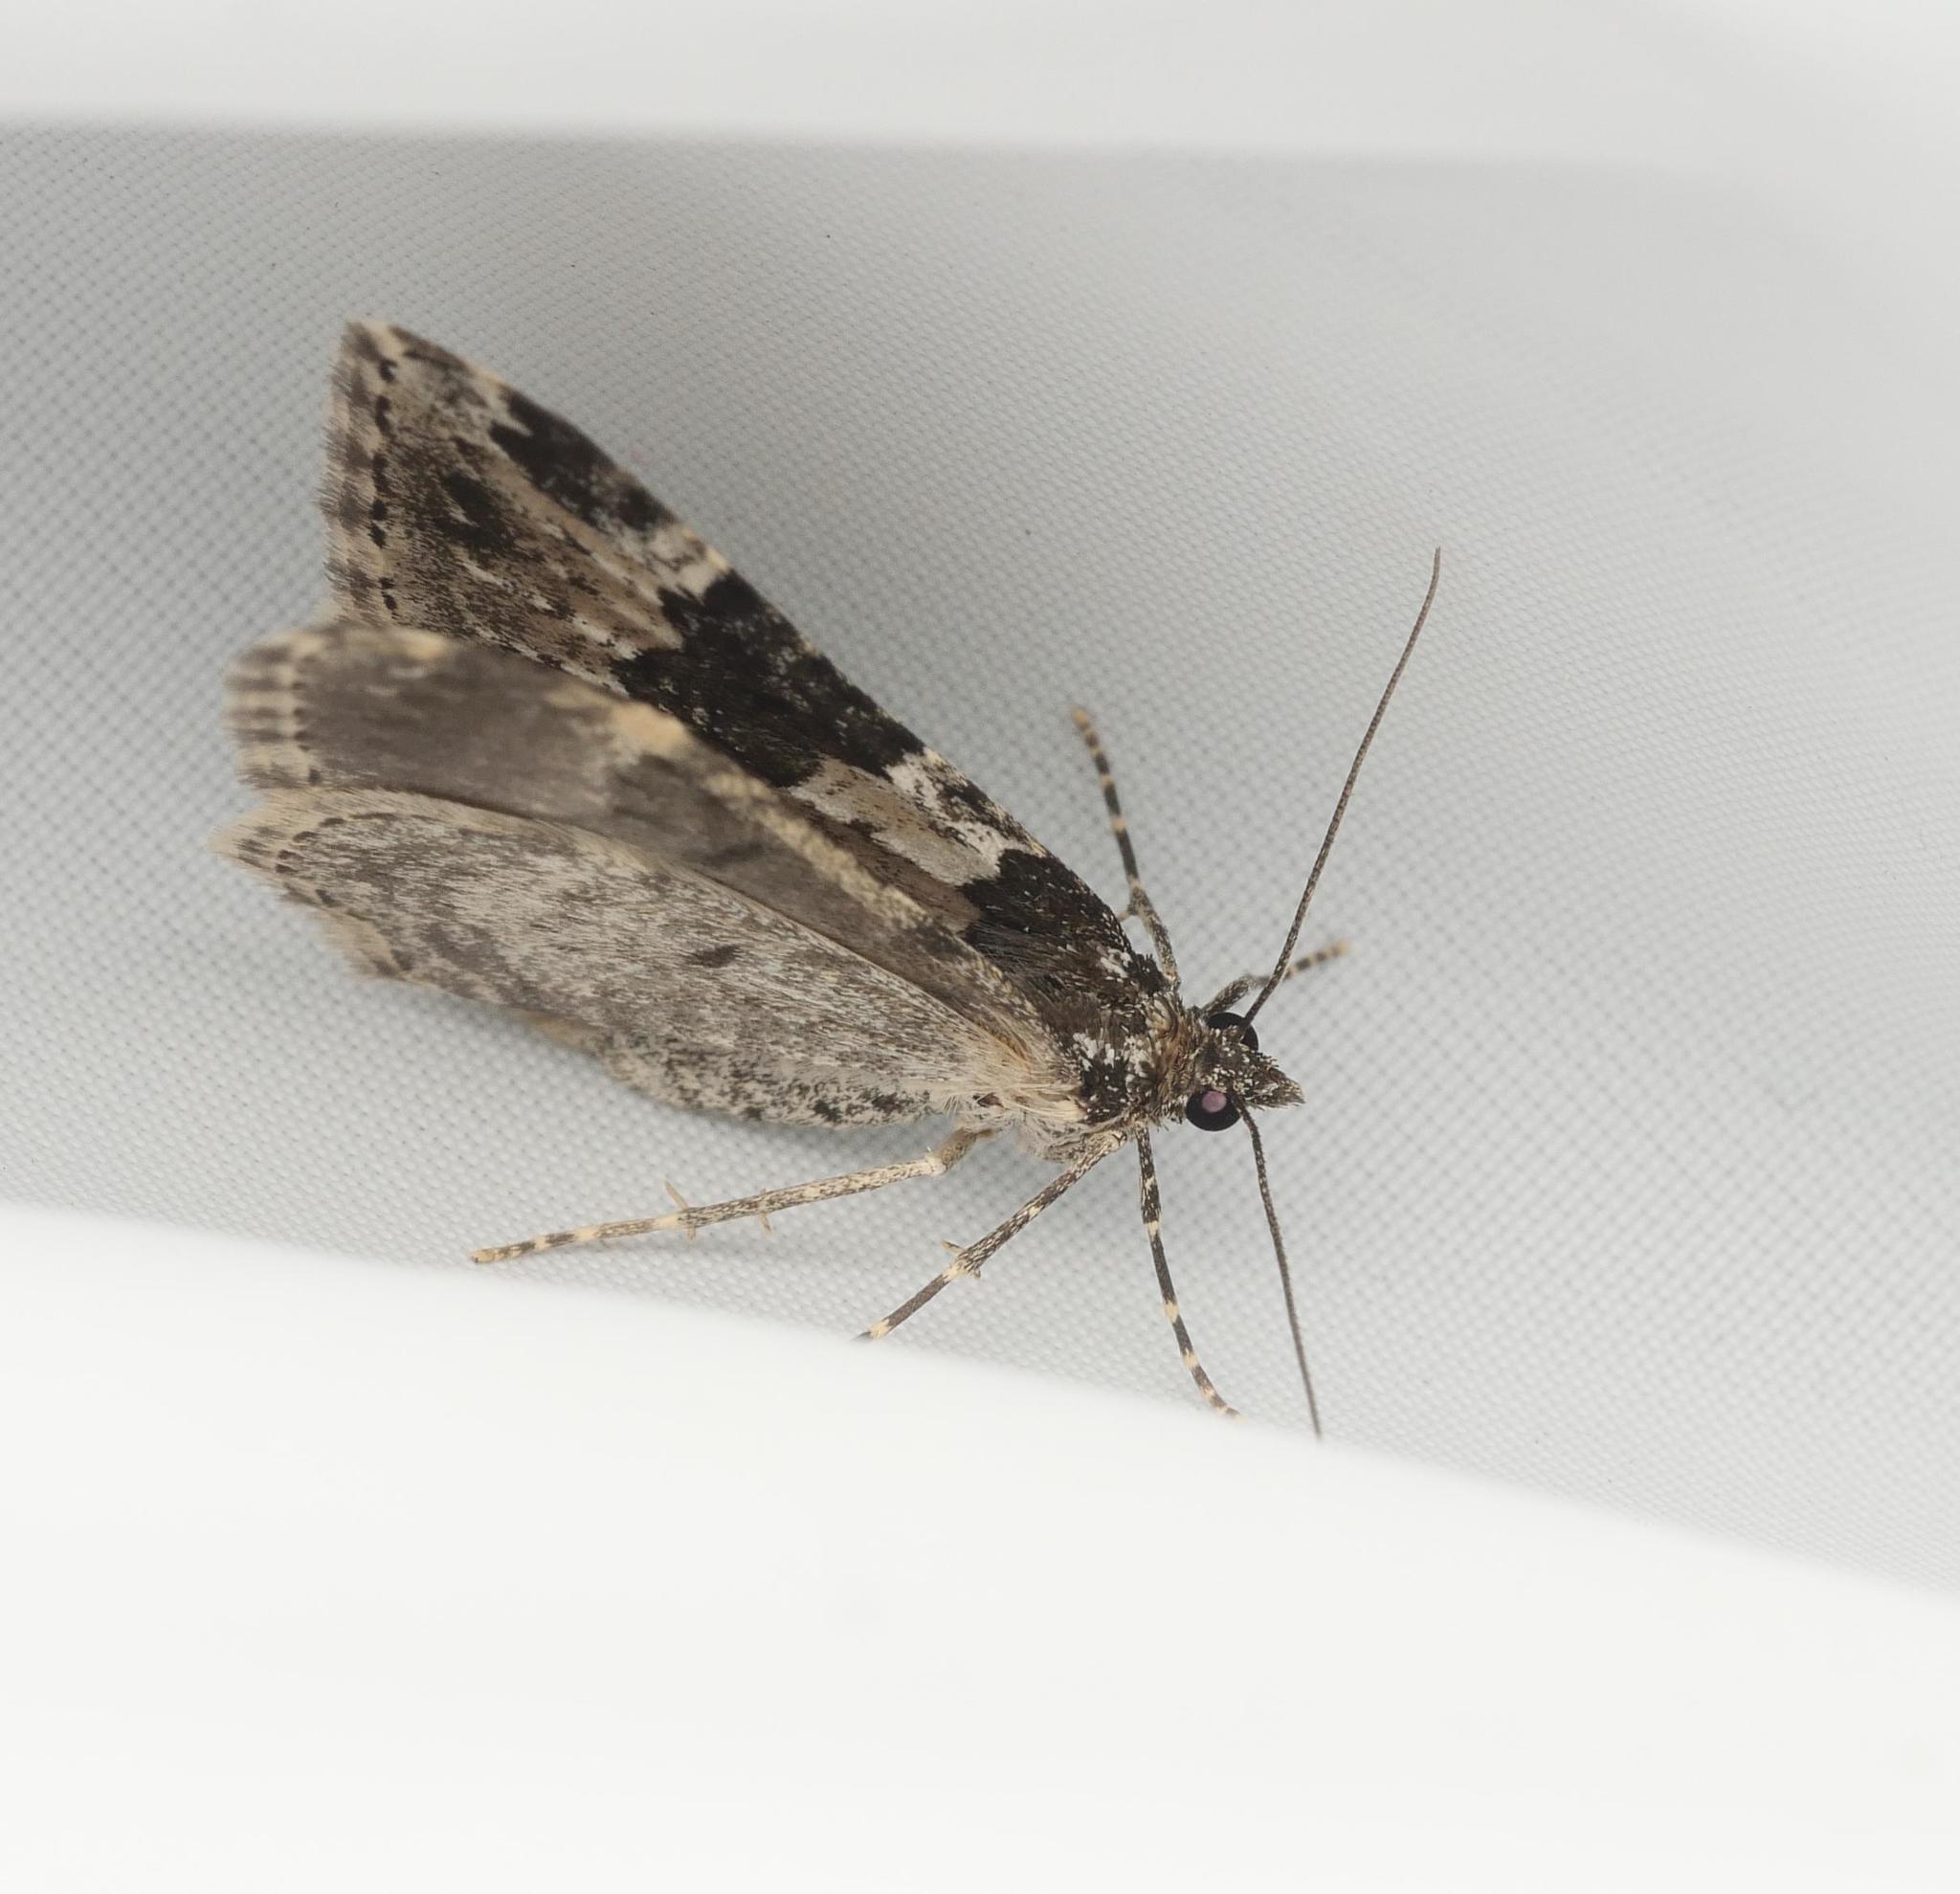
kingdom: Animalia
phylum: Arthropoda
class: Insecta
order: Lepidoptera
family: Geometridae
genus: Xanthorhoe
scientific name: Xanthorhoe fluctuata
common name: Garden carpet
